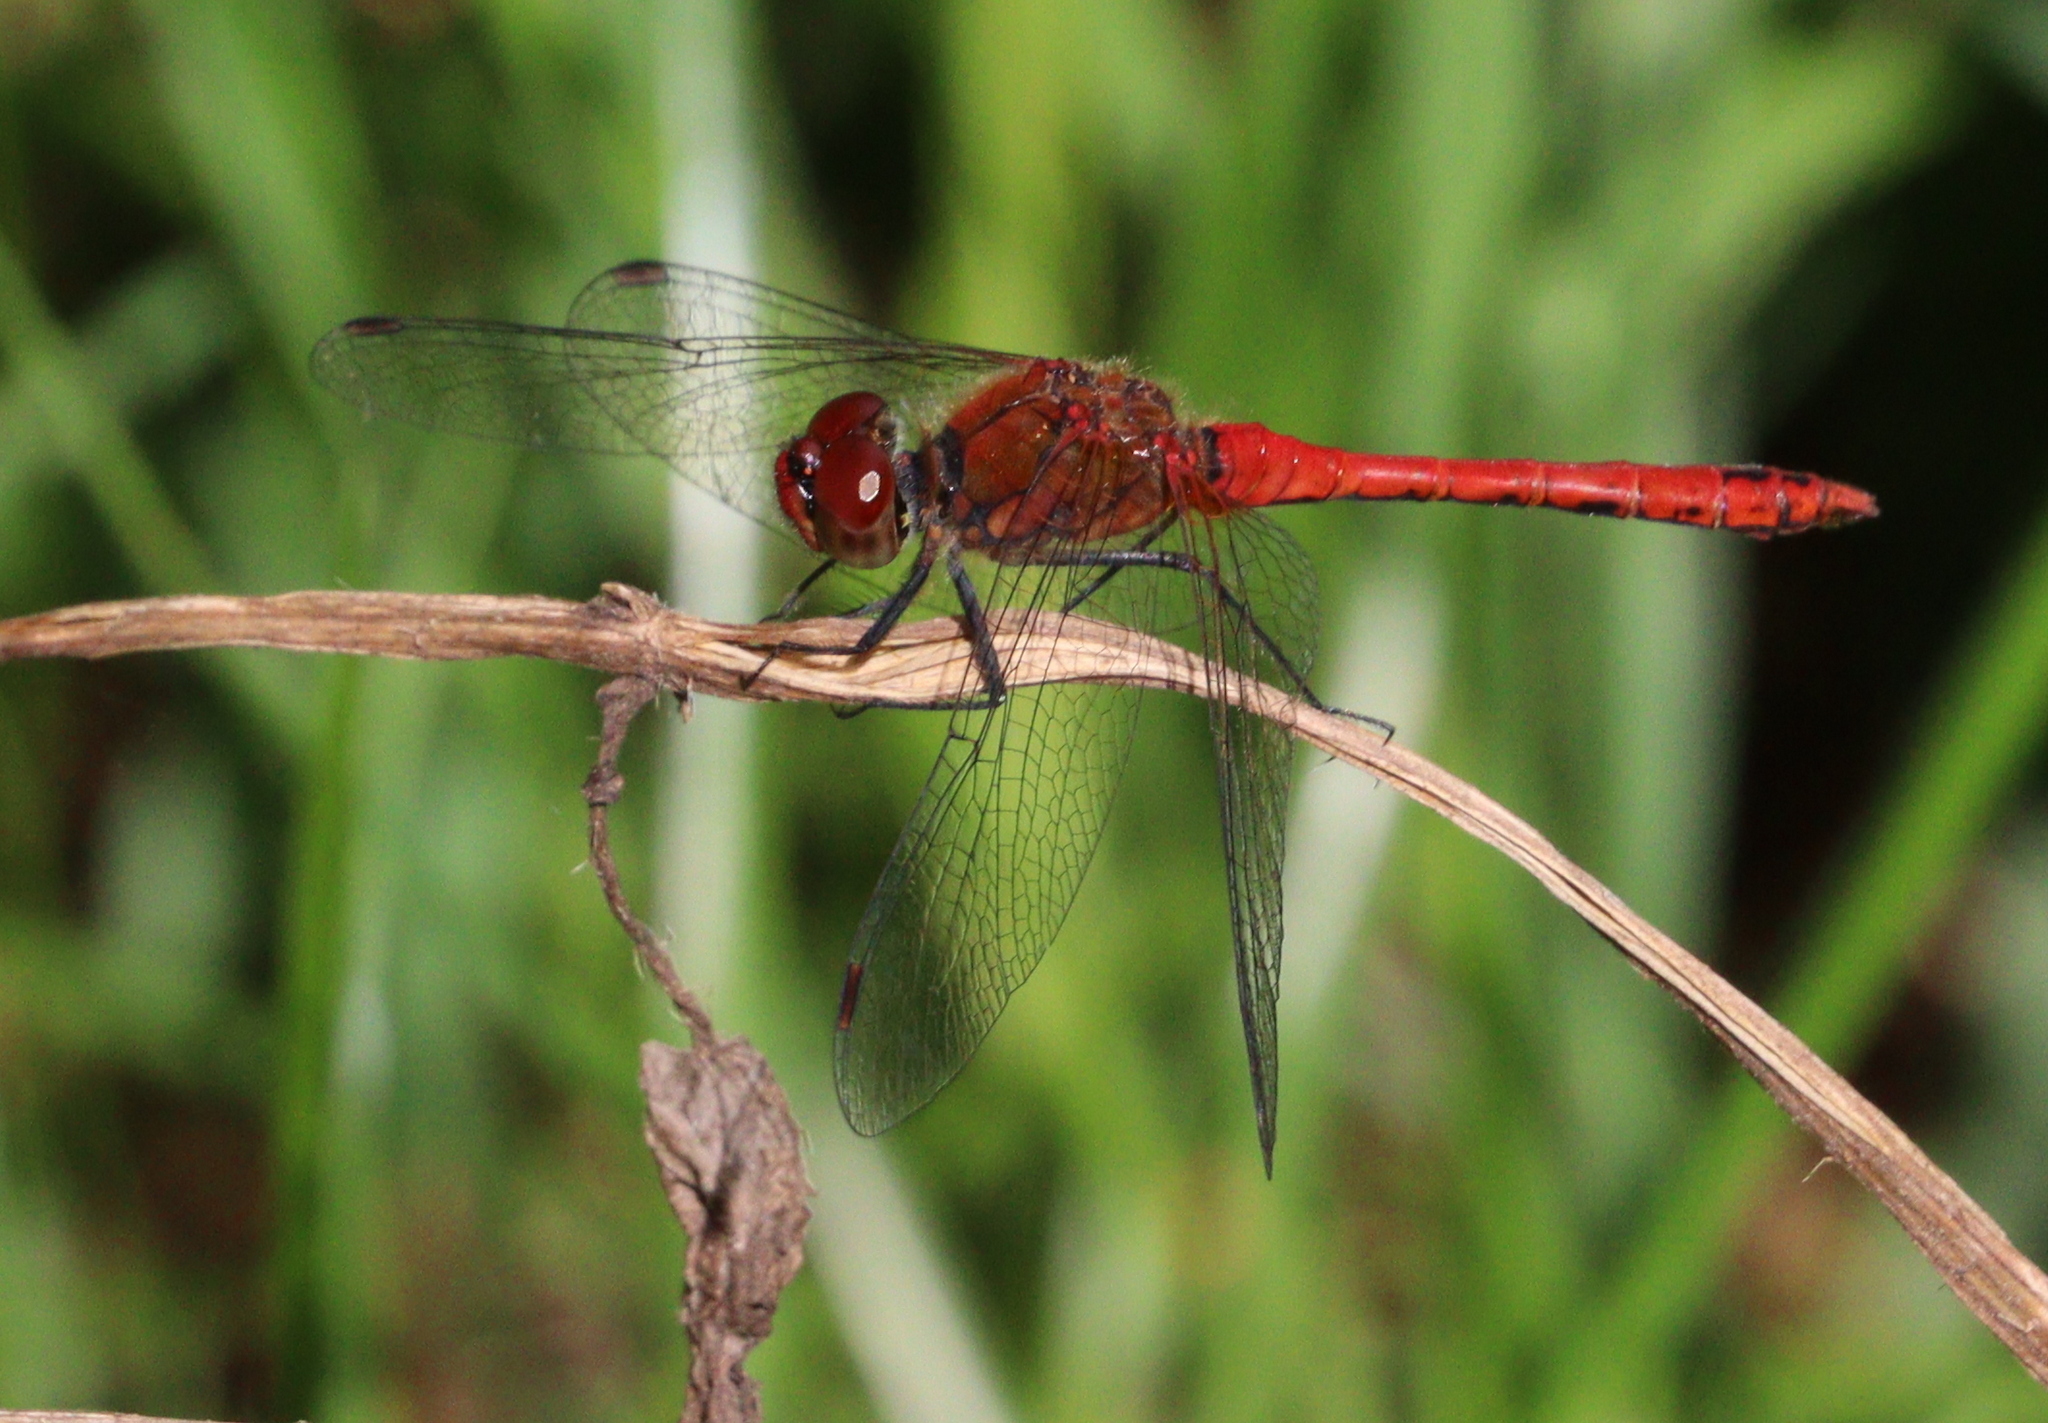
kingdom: Animalia
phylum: Arthropoda
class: Insecta
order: Odonata
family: Libellulidae
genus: Sympetrum
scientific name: Sympetrum sanguineum
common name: Ruddy darter
